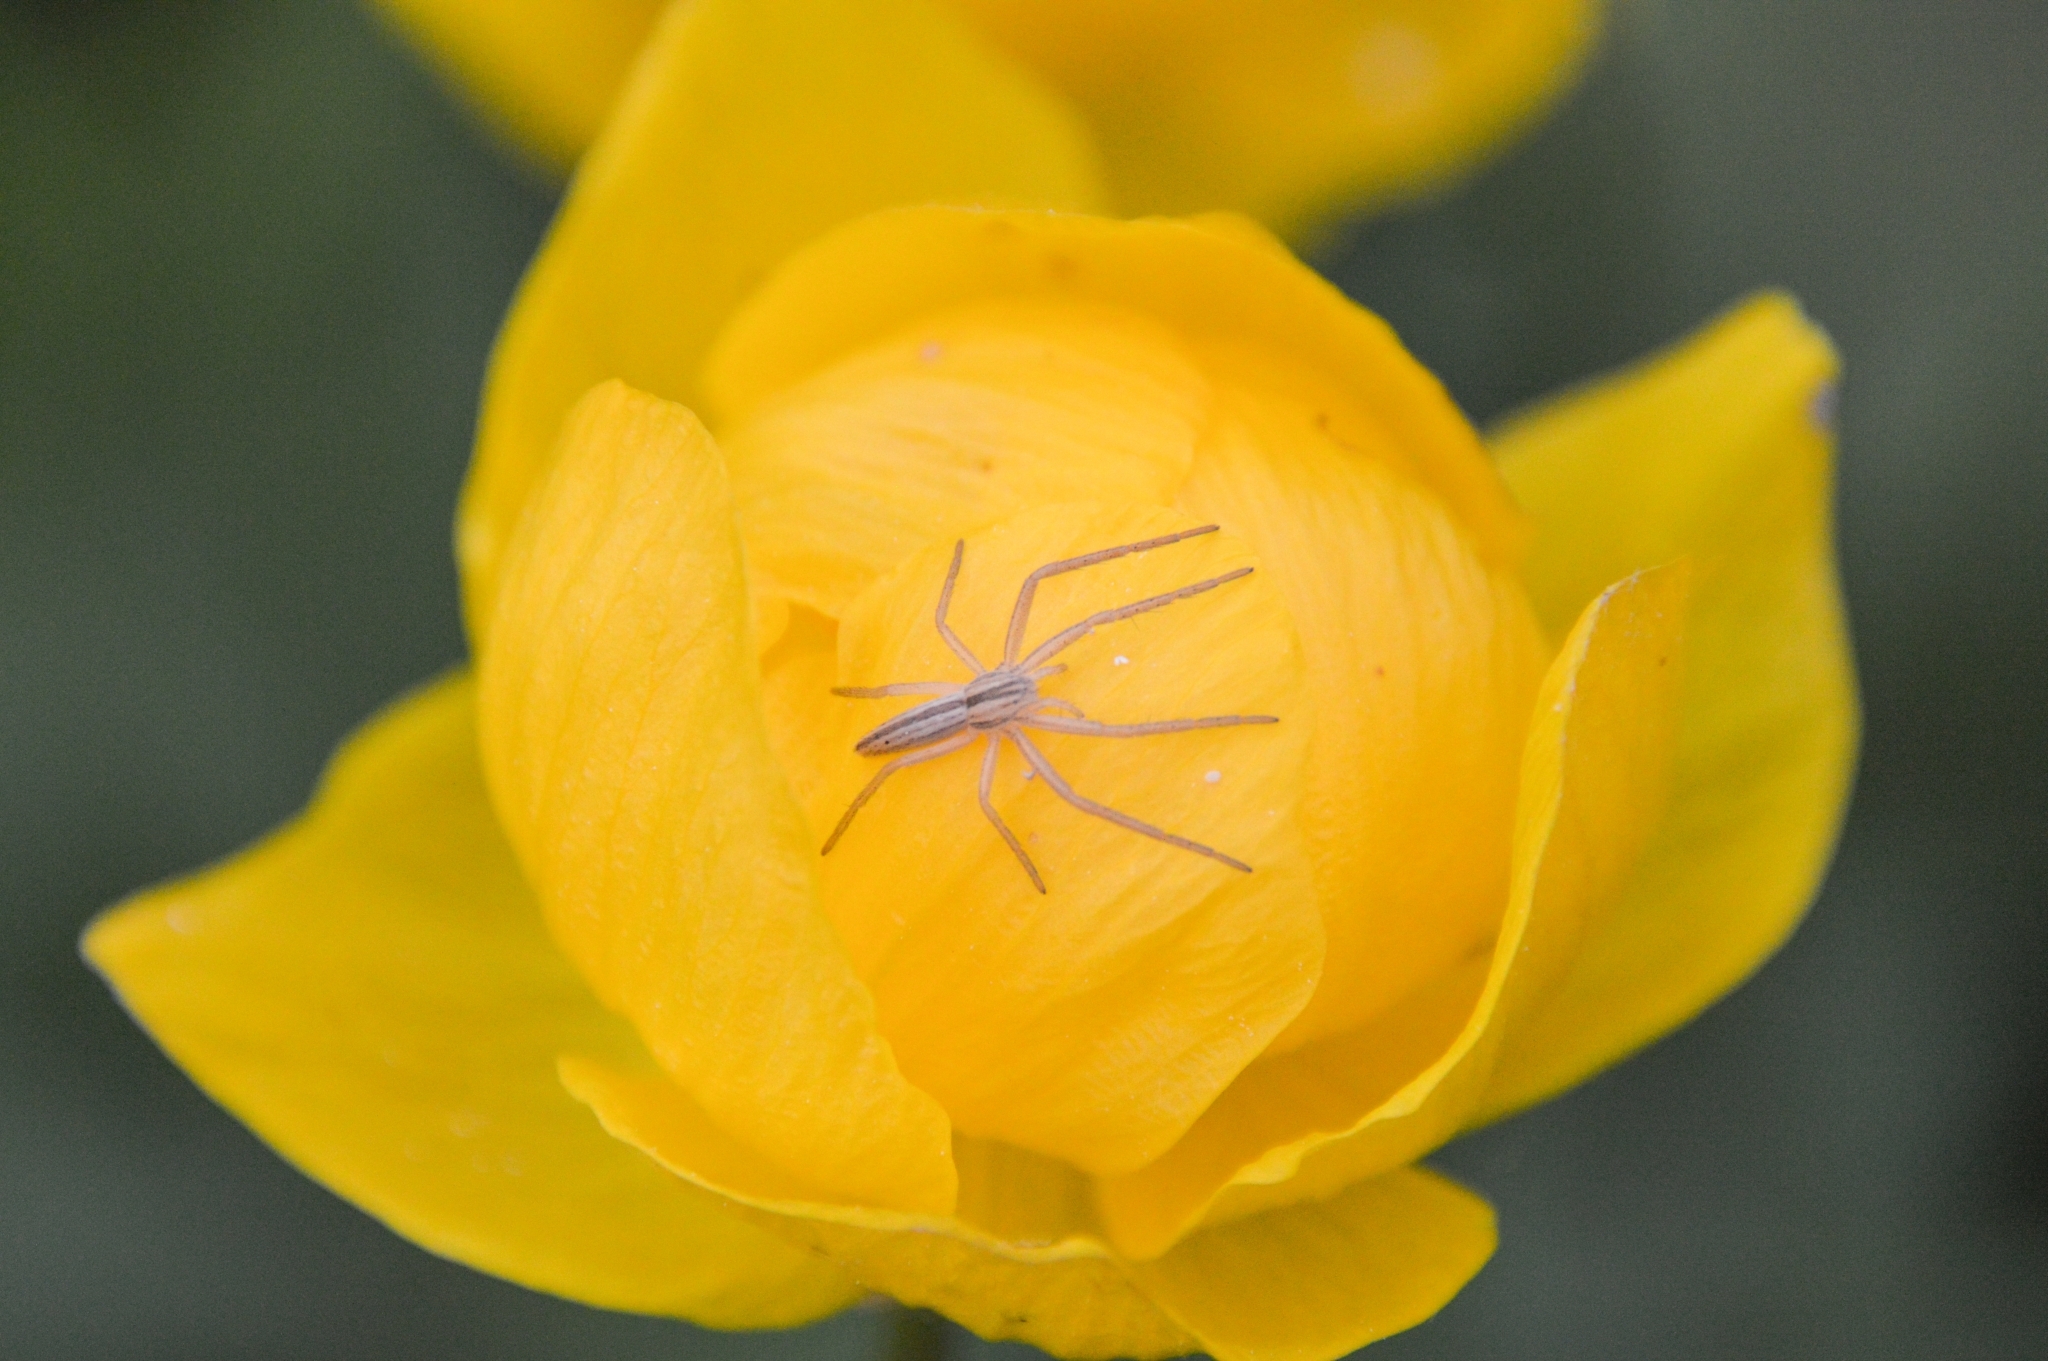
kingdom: Animalia
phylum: Arthropoda
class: Arachnida
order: Araneae
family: Philodromidae
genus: Tibellus
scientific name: Tibellus
